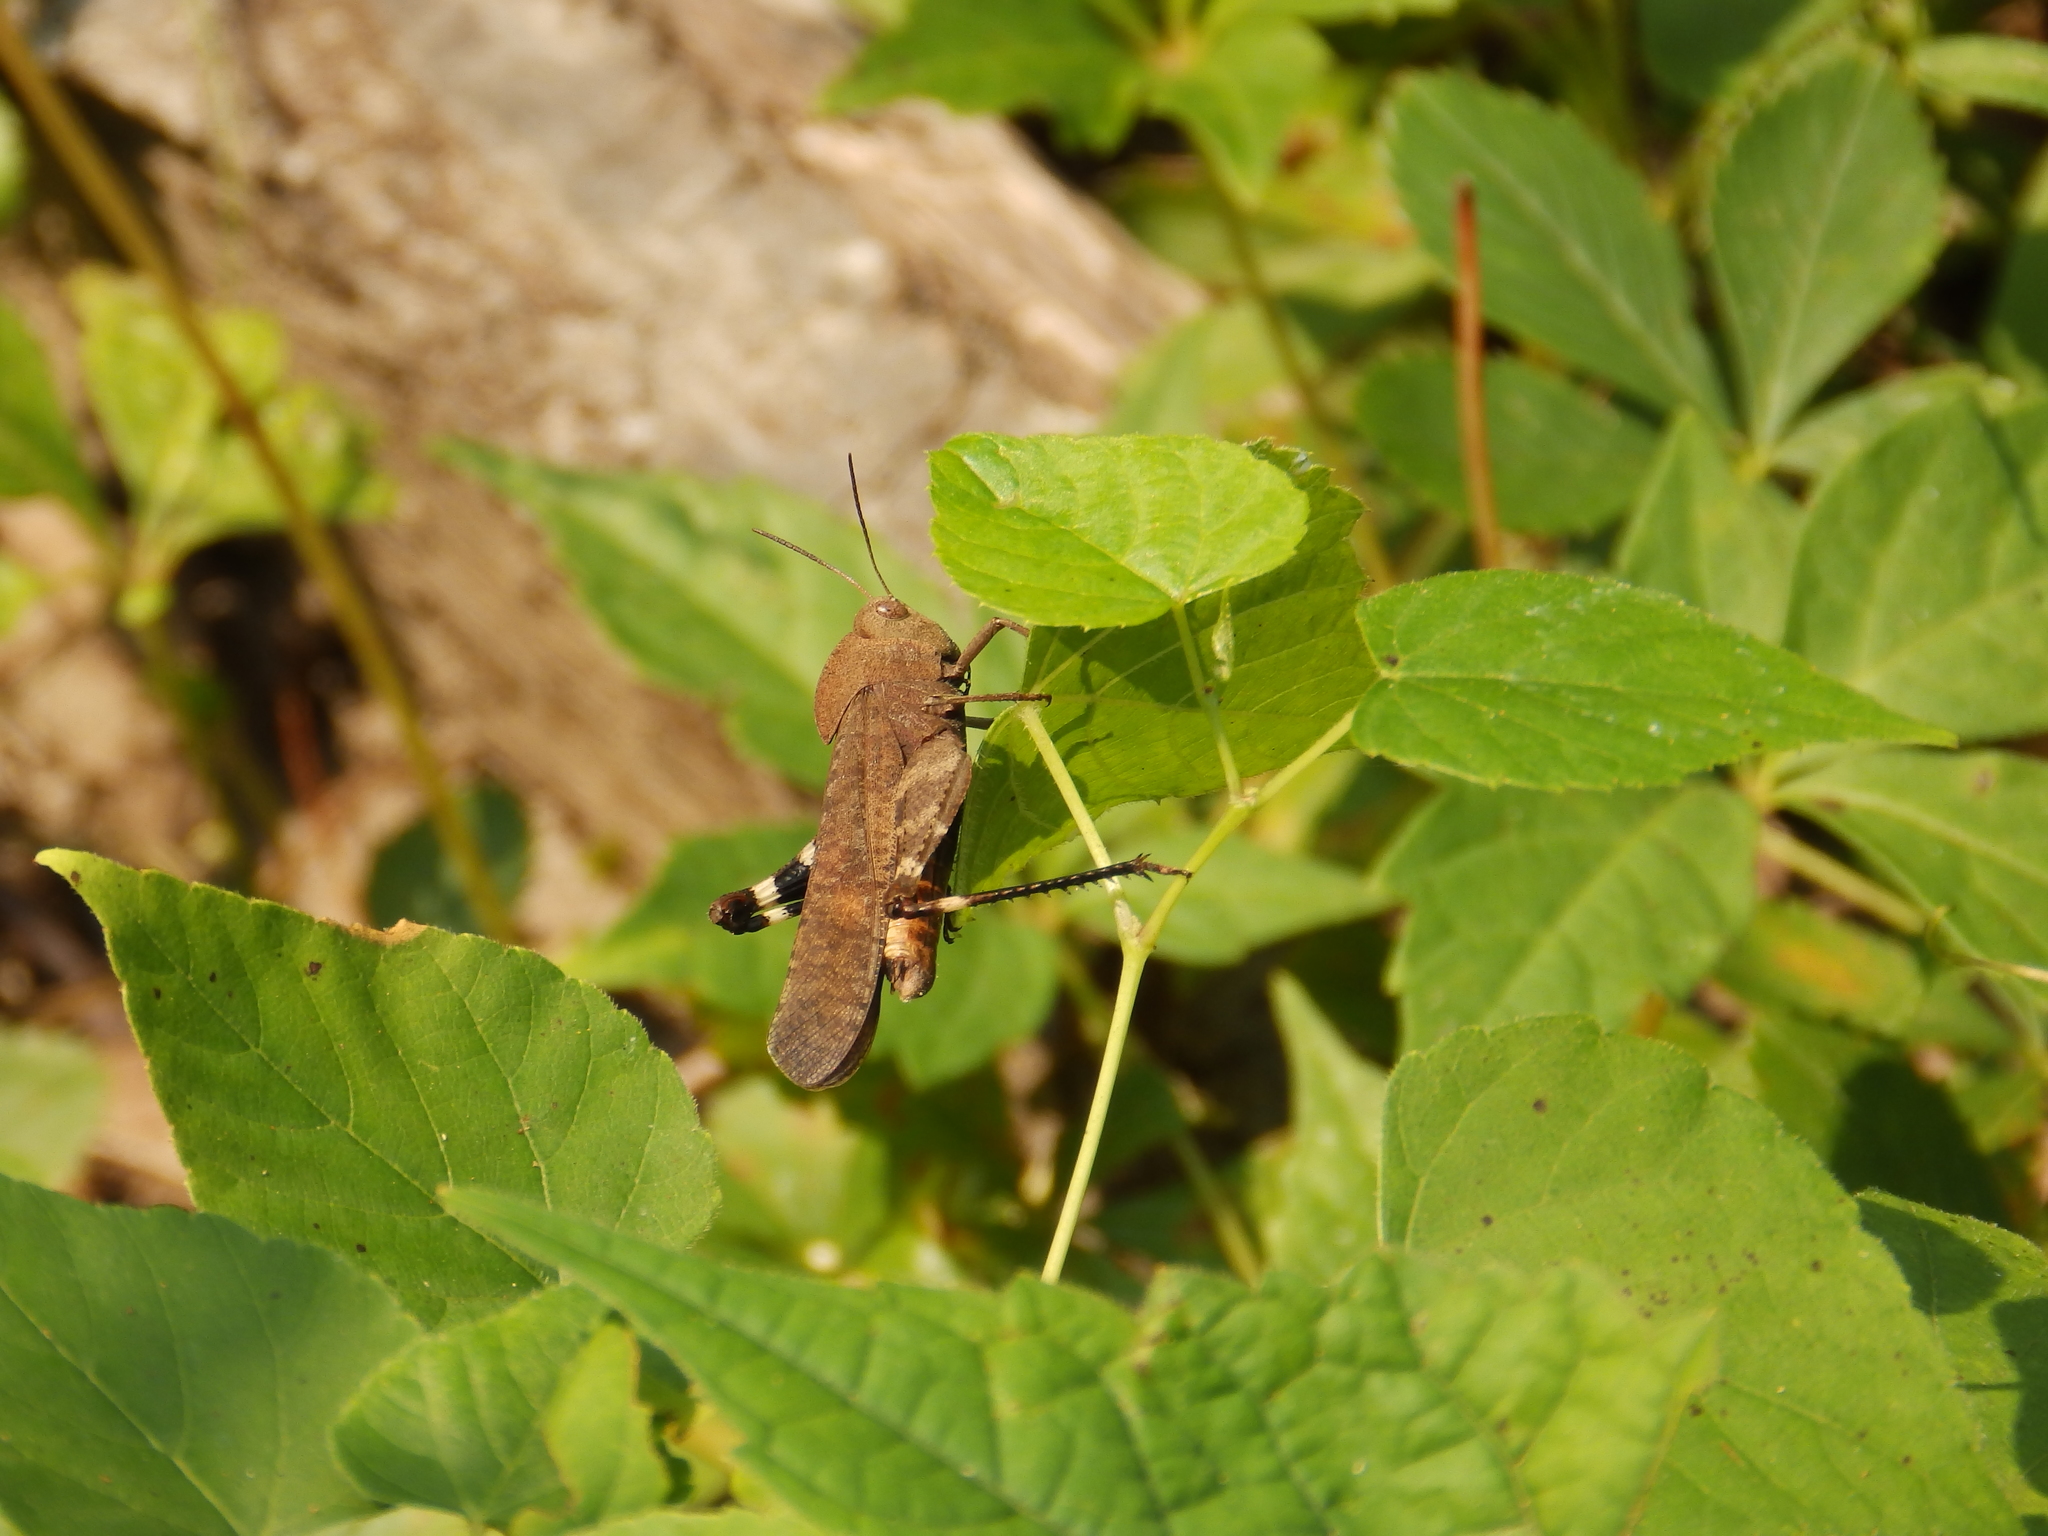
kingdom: Animalia
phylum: Arthropoda
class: Insecta
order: Orthoptera
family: Acrididae
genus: Arphia
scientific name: Arphia xanthoptera
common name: Autumn yellow-winged grasshopper
